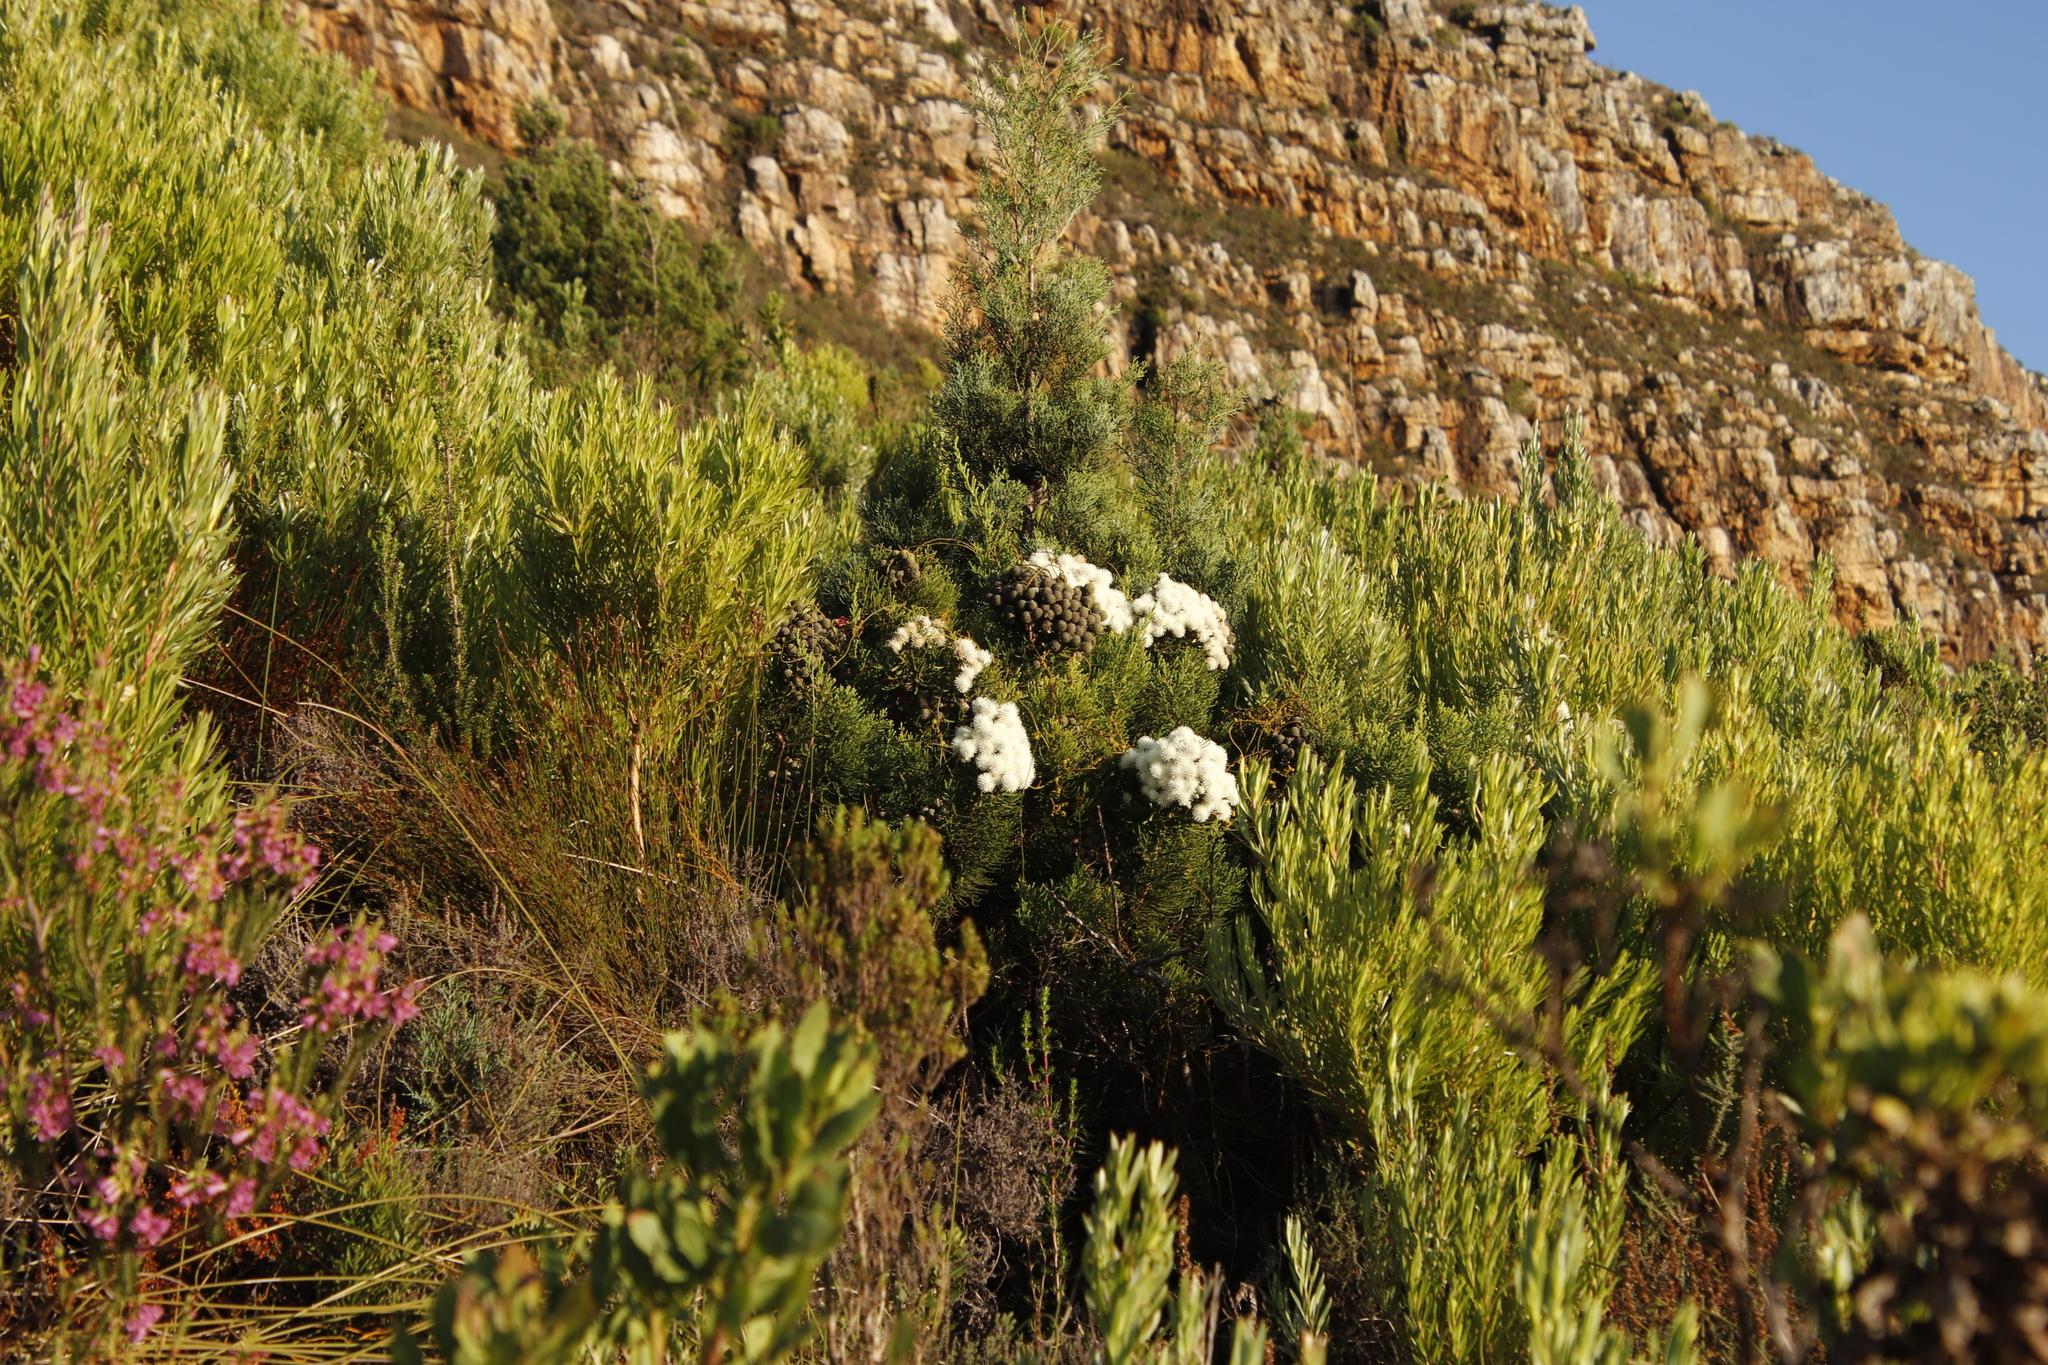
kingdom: Plantae
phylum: Tracheophyta
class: Magnoliopsida
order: Bruniales
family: Bruniaceae
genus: Brunia
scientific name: Brunia noduliflora
